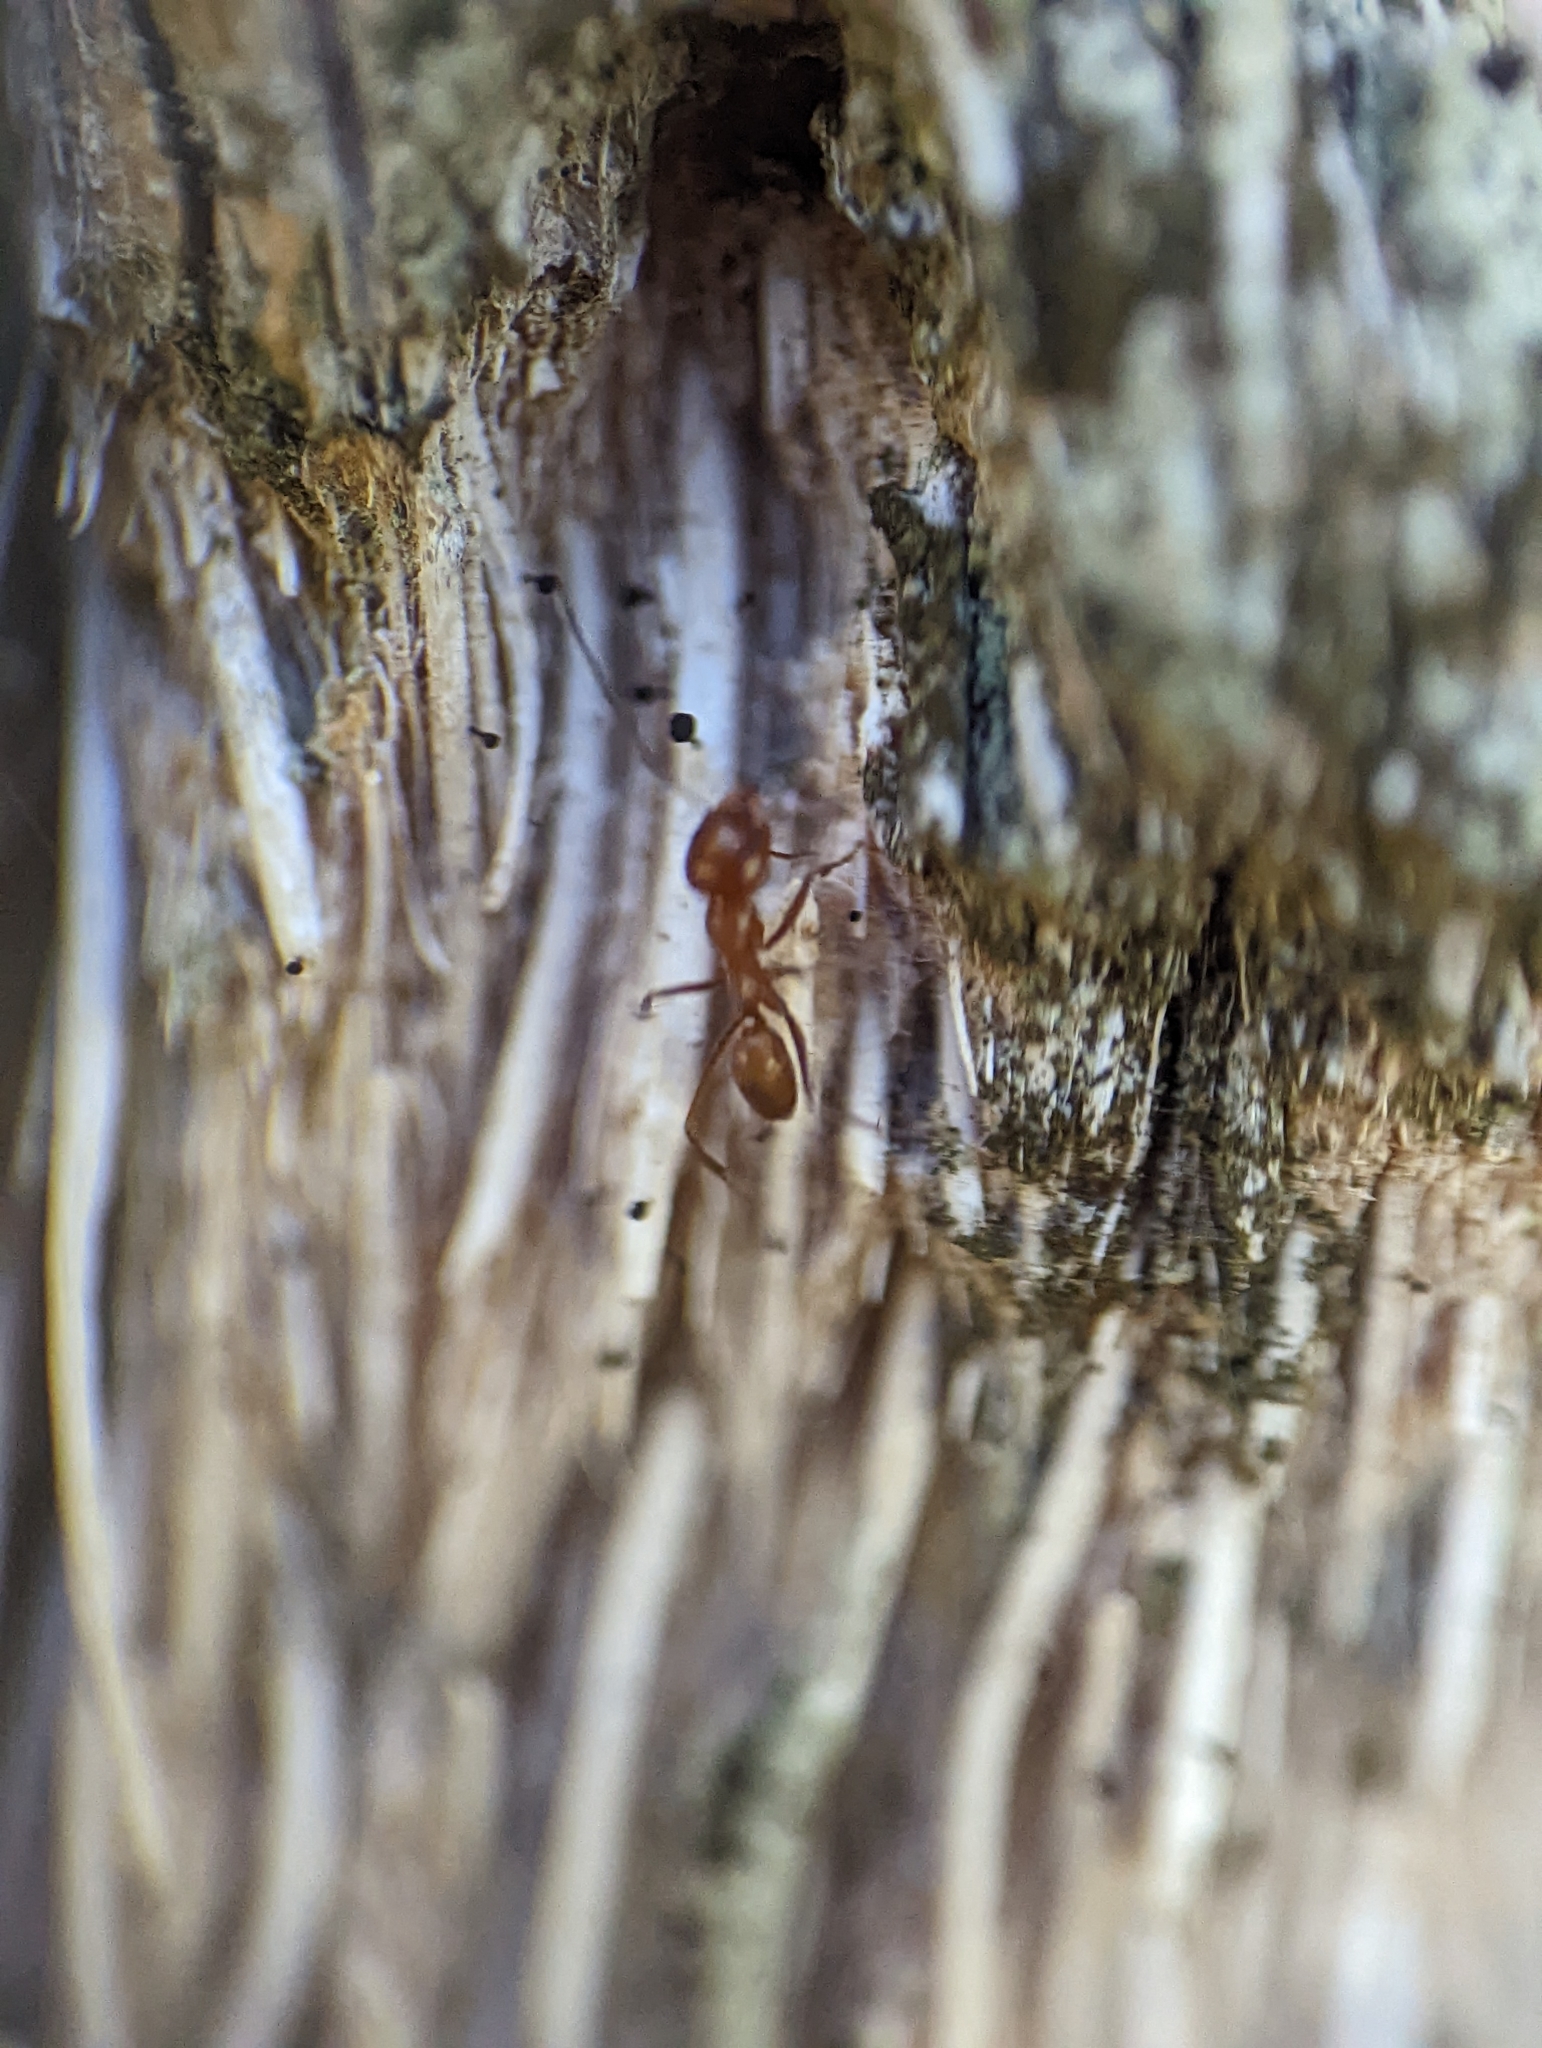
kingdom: Animalia
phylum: Arthropoda
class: Insecta
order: Hymenoptera
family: Formicidae
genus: Dorymyrmex
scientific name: Dorymyrmex bureni
